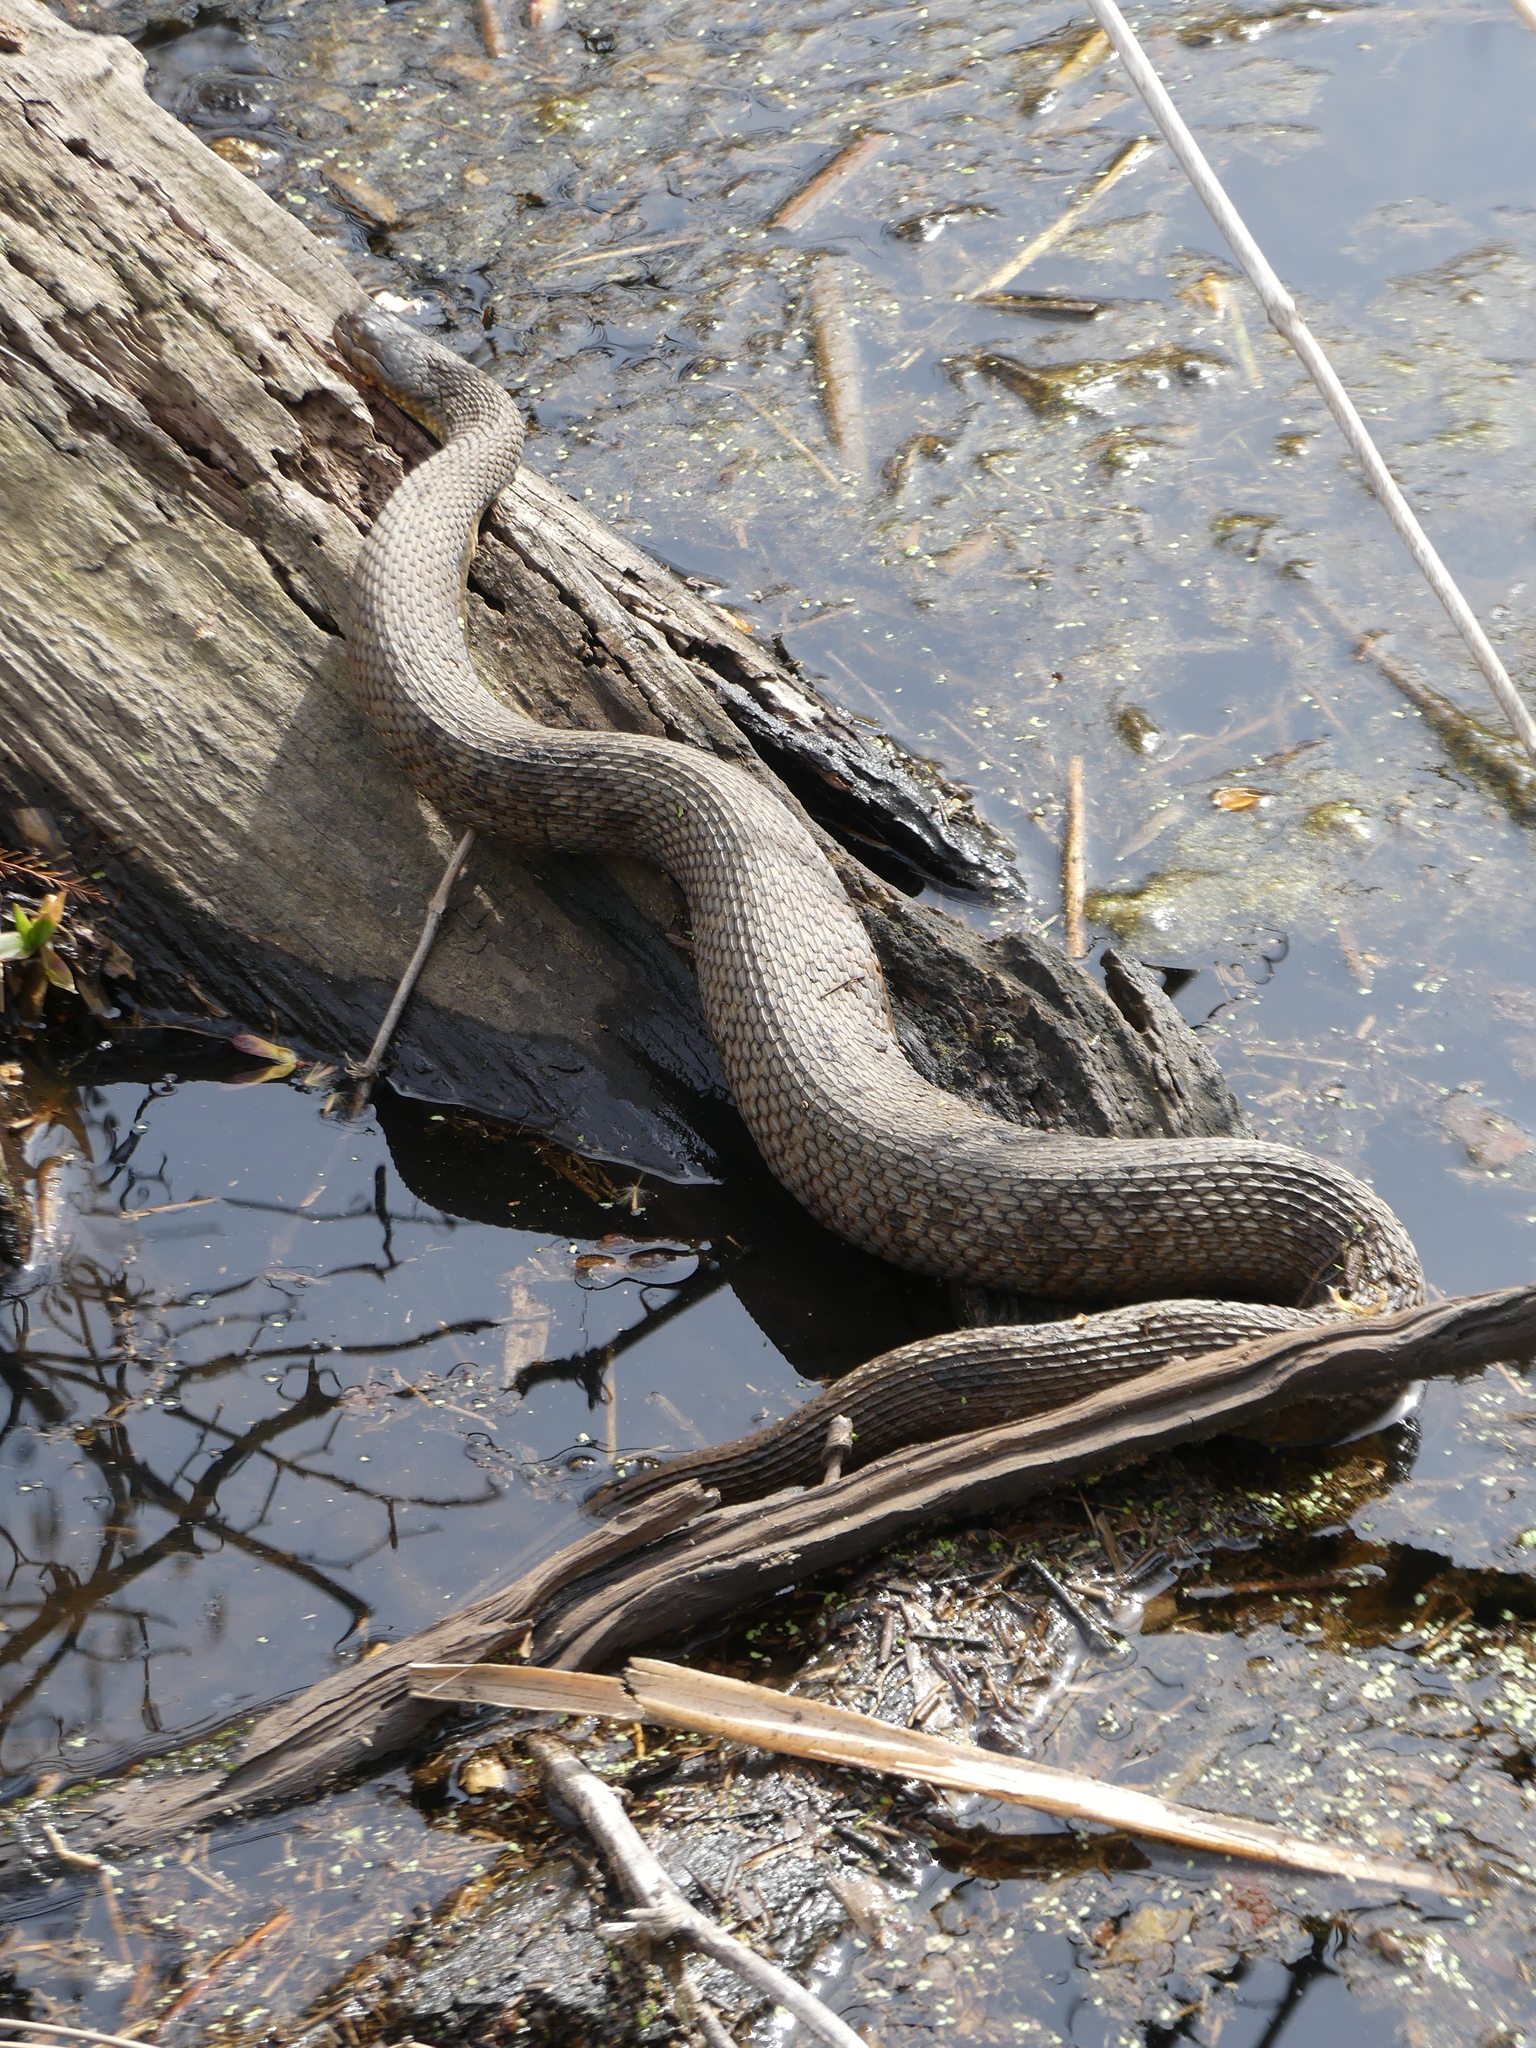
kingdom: Animalia
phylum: Chordata
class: Squamata
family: Colubridae
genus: Nerodia
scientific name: Nerodia sipedon
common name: Northern water snake
